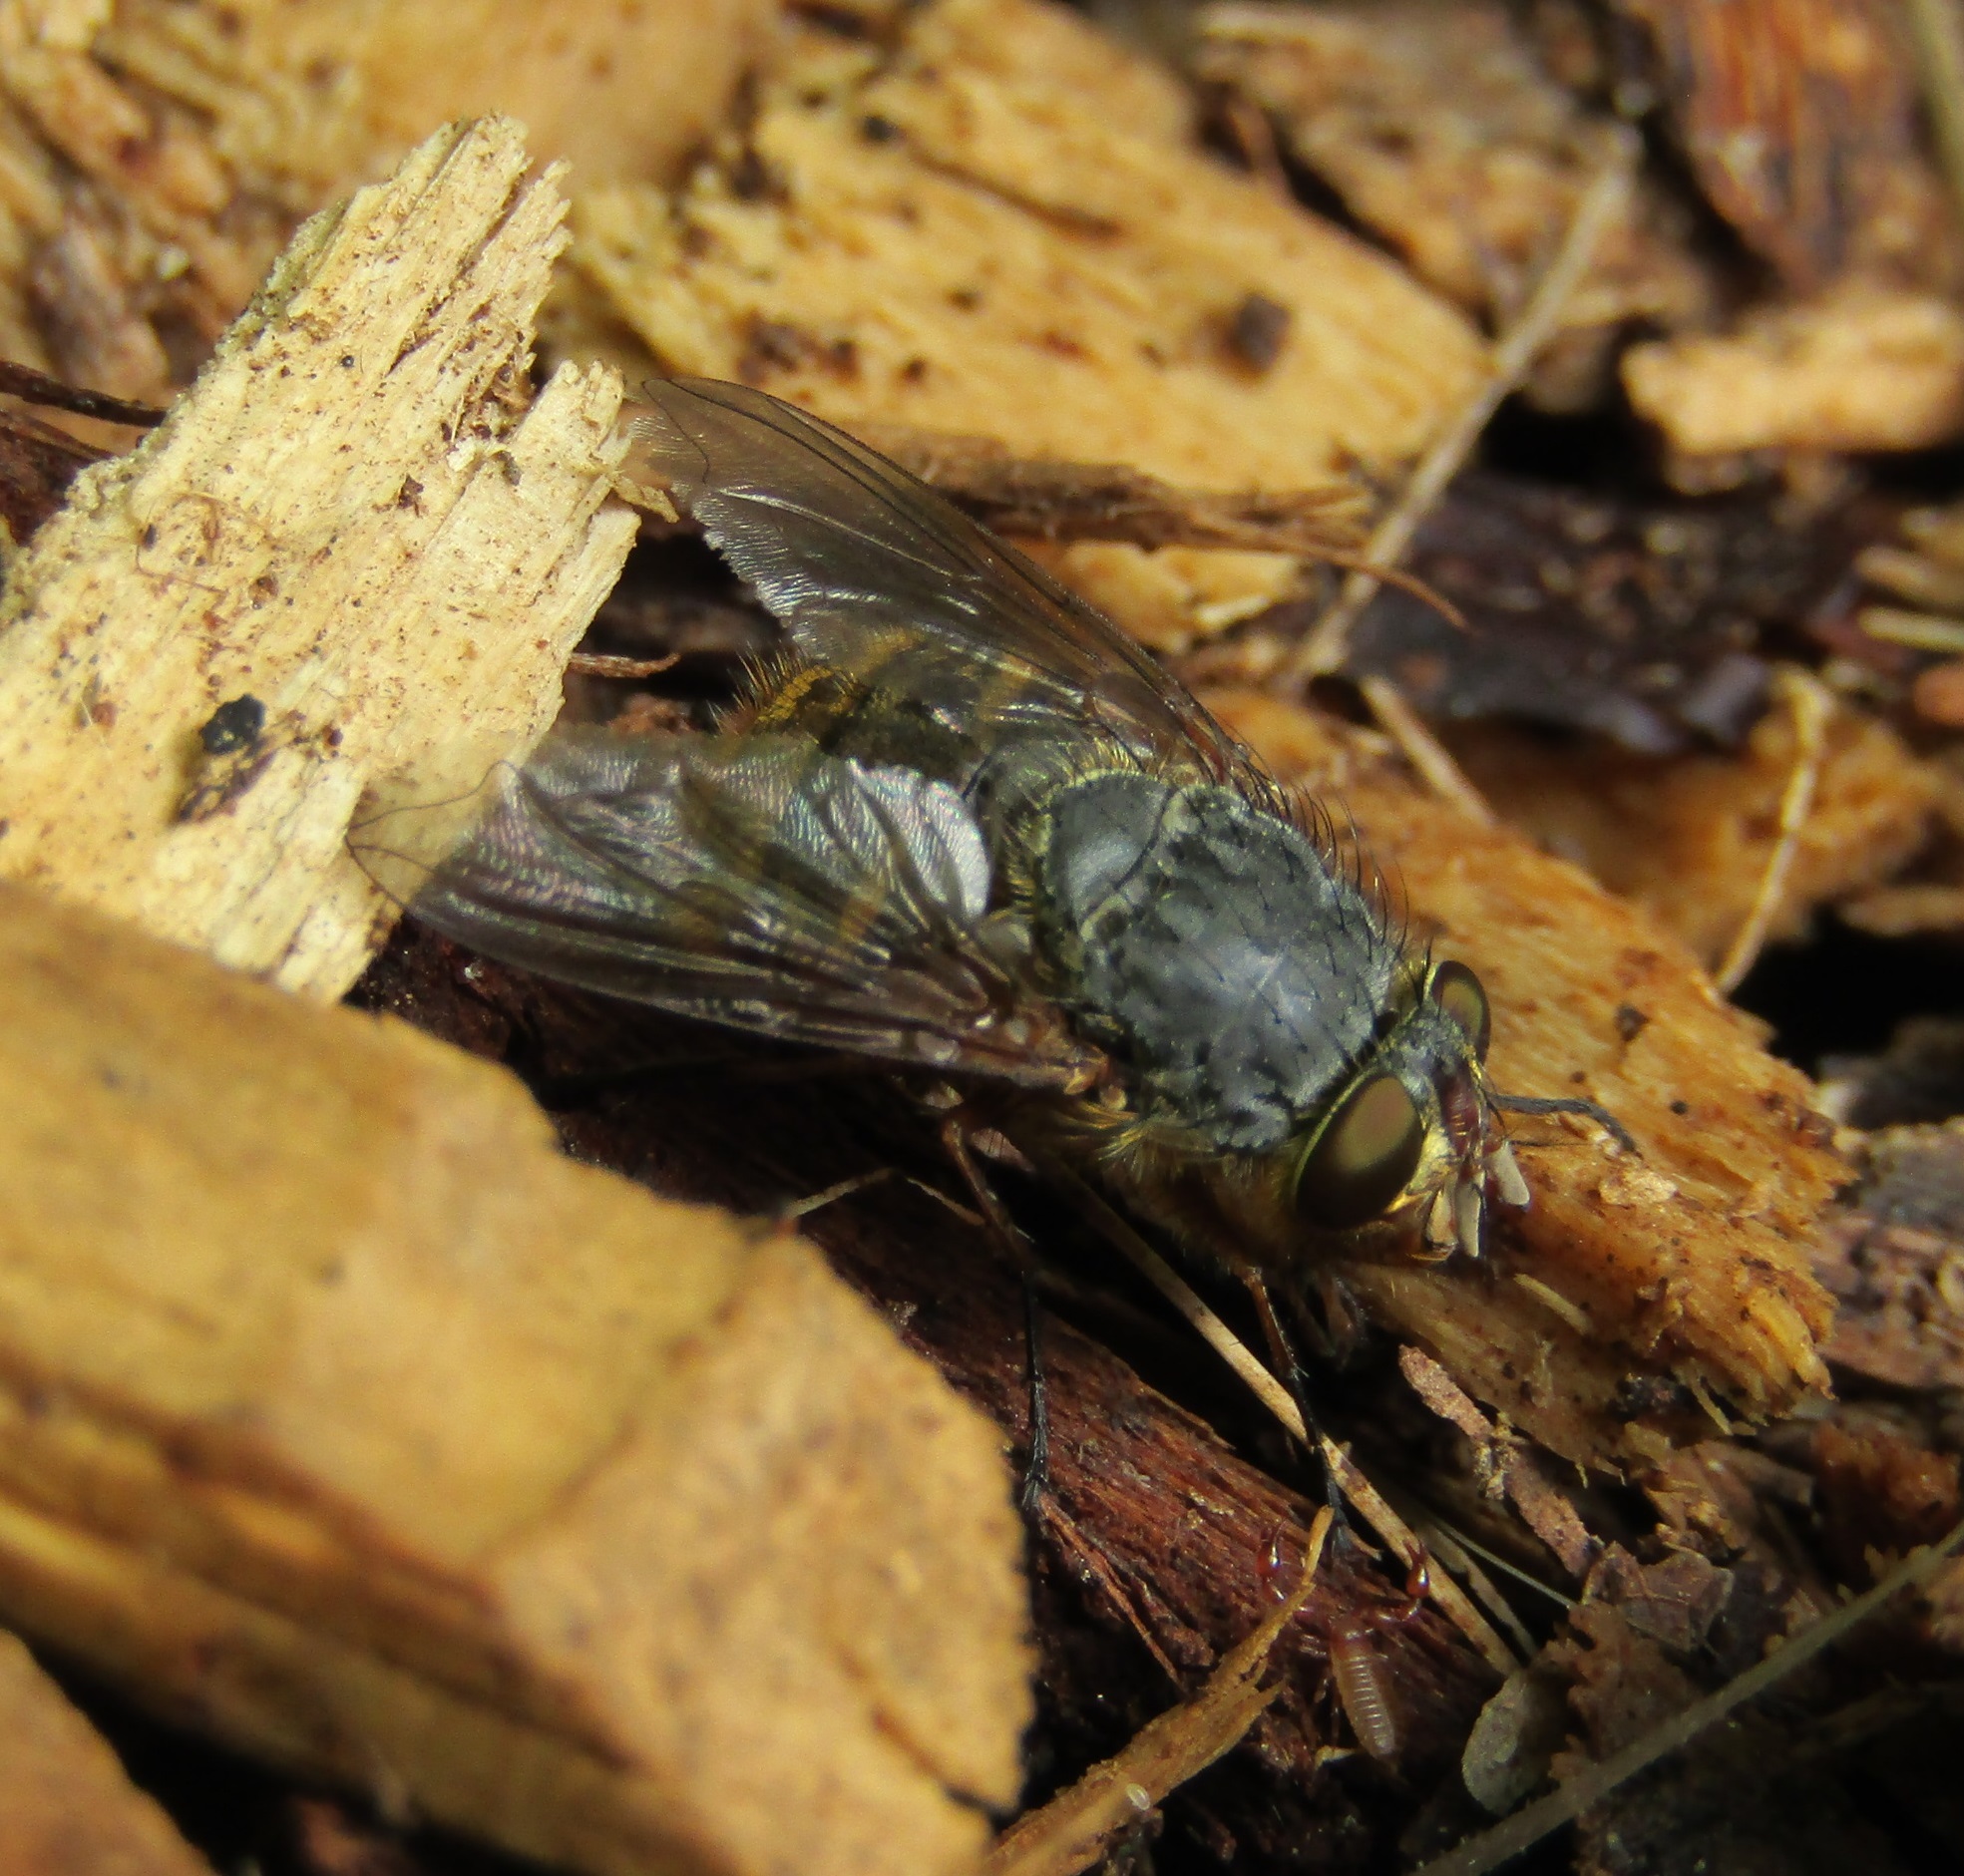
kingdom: Animalia
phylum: Arthropoda
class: Insecta
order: Diptera
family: Calliphoridae
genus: Calliphora
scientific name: Calliphora hilli
